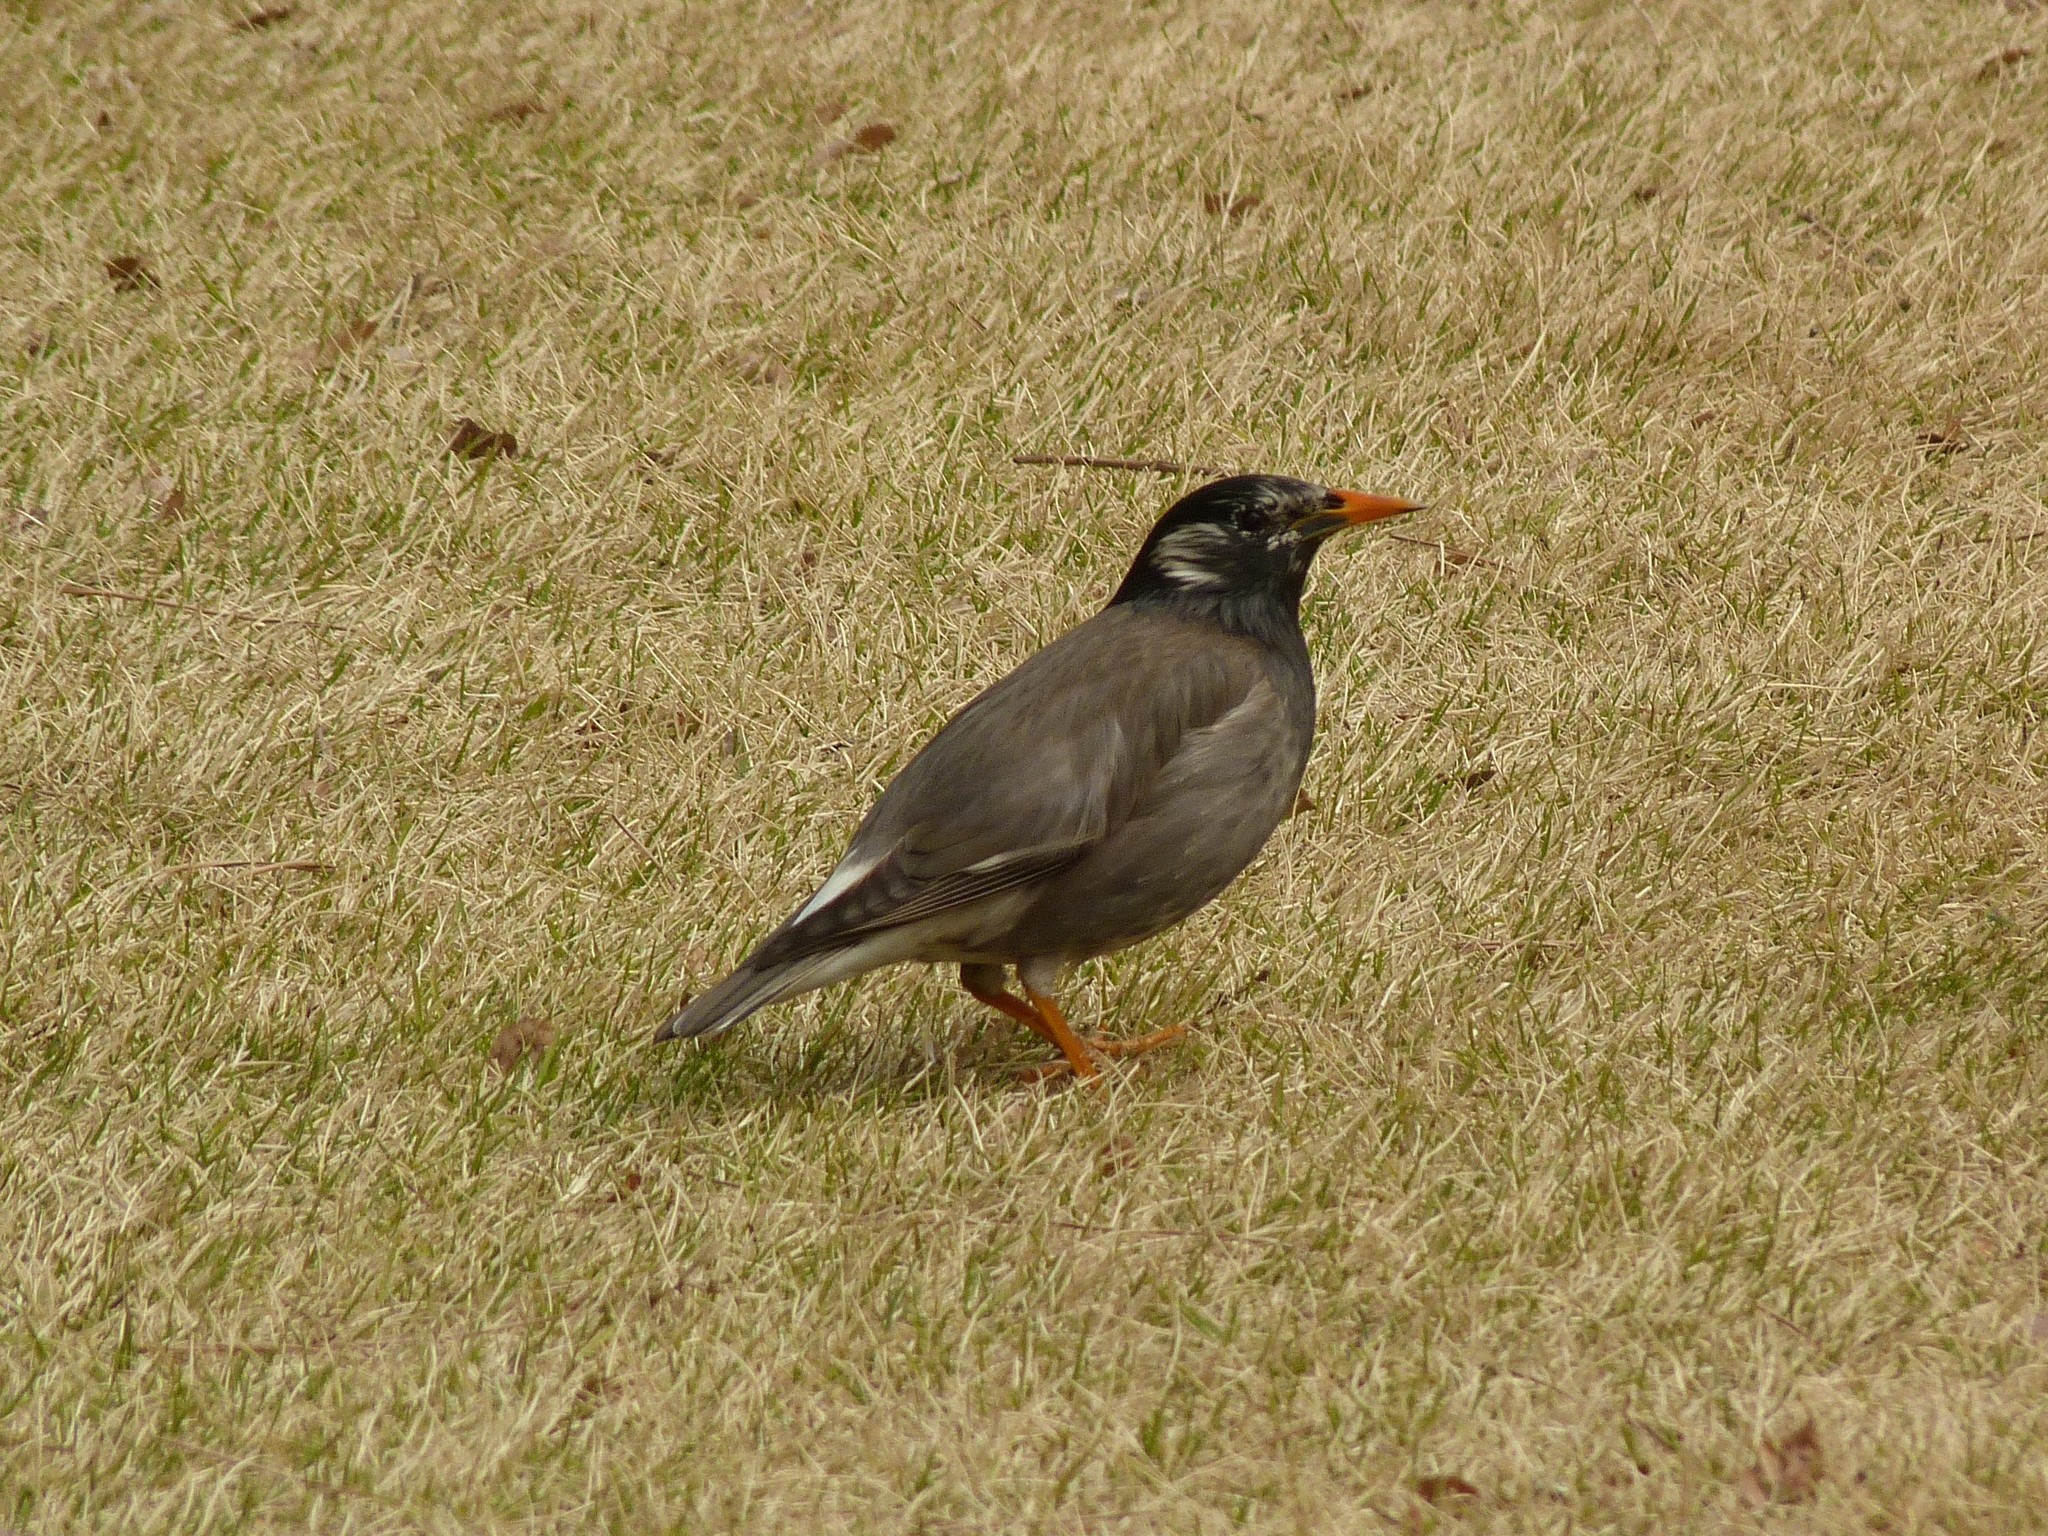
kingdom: Animalia
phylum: Chordata
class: Aves
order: Passeriformes
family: Sturnidae
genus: Spodiopsar
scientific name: Spodiopsar cineraceus
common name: White-cheeked starling
